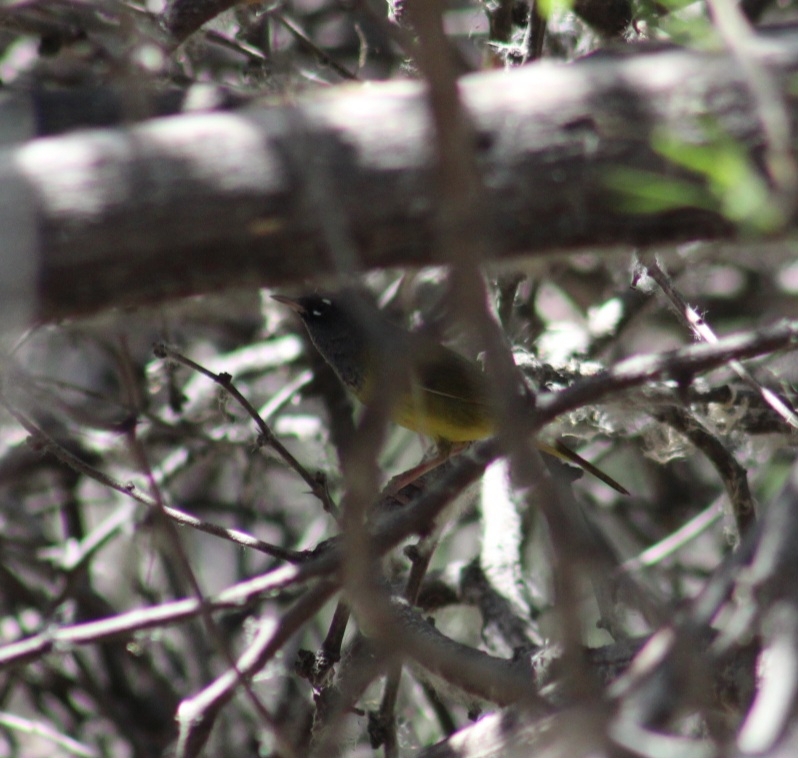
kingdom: Animalia
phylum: Chordata
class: Aves
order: Passeriformes
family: Parulidae
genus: Geothlypis
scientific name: Geothlypis tolmiei
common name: Macgillivray's warbler
